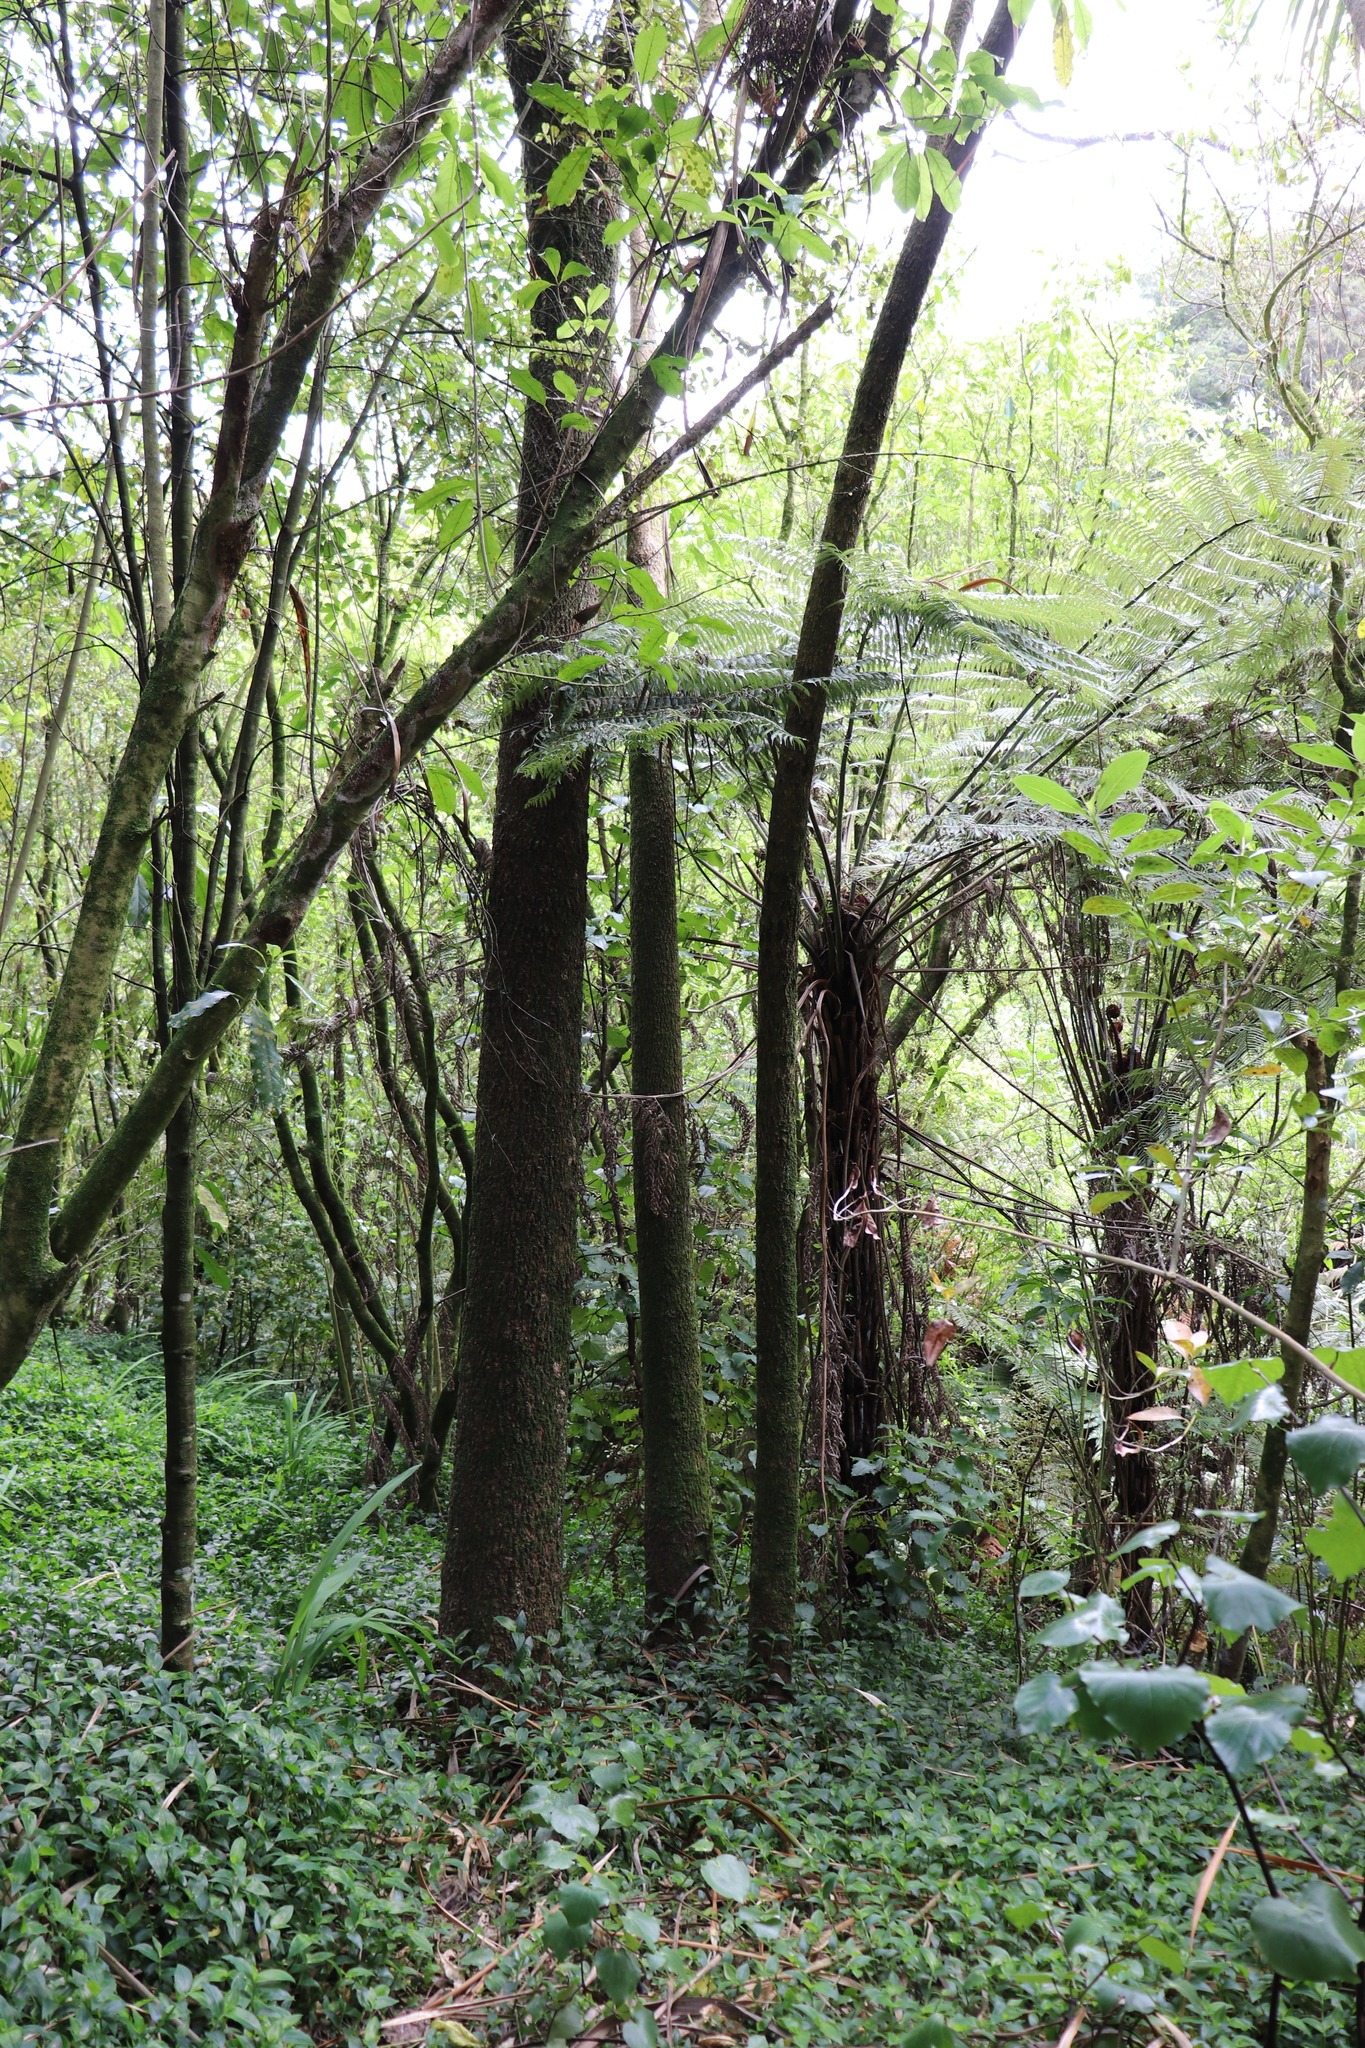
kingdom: Plantae
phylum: Tracheophyta
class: Liliopsida
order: Commelinales
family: Commelinaceae
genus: Tradescantia
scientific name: Tradescantia fluminensis
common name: Wandering-jew
